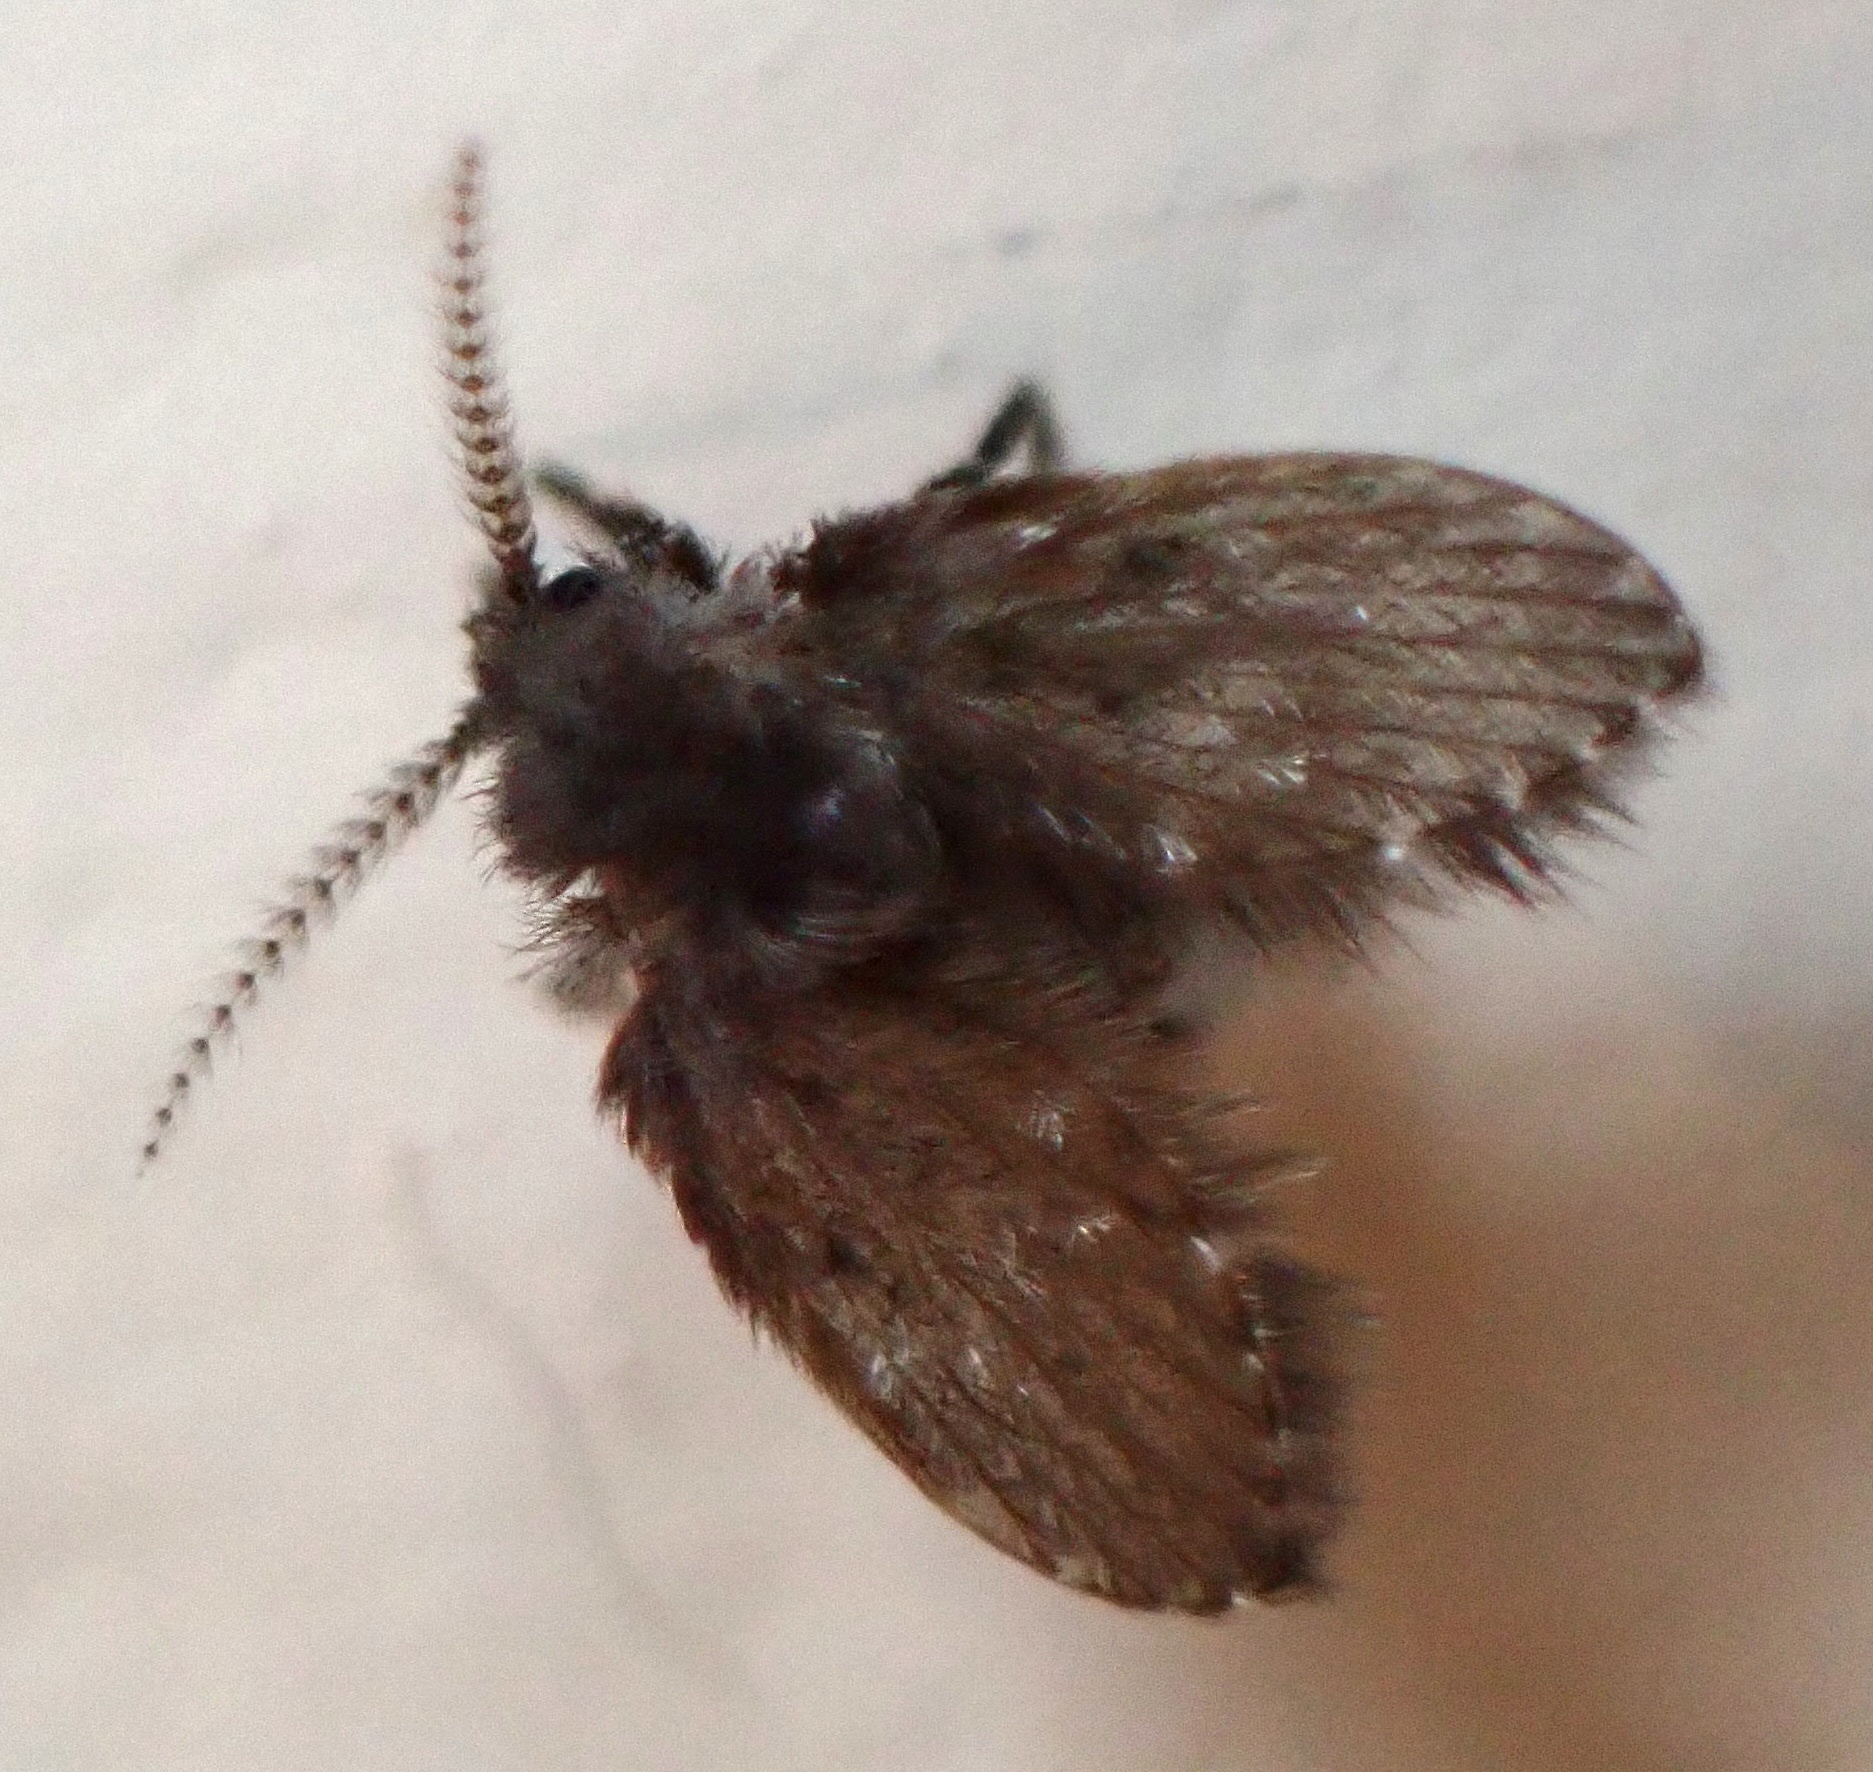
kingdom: Animalia
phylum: Arthropoda
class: Insecta
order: Diptera
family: Psychodidae
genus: Clogmia
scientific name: Clogmia albipunctatus
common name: White-spotted moth fly
